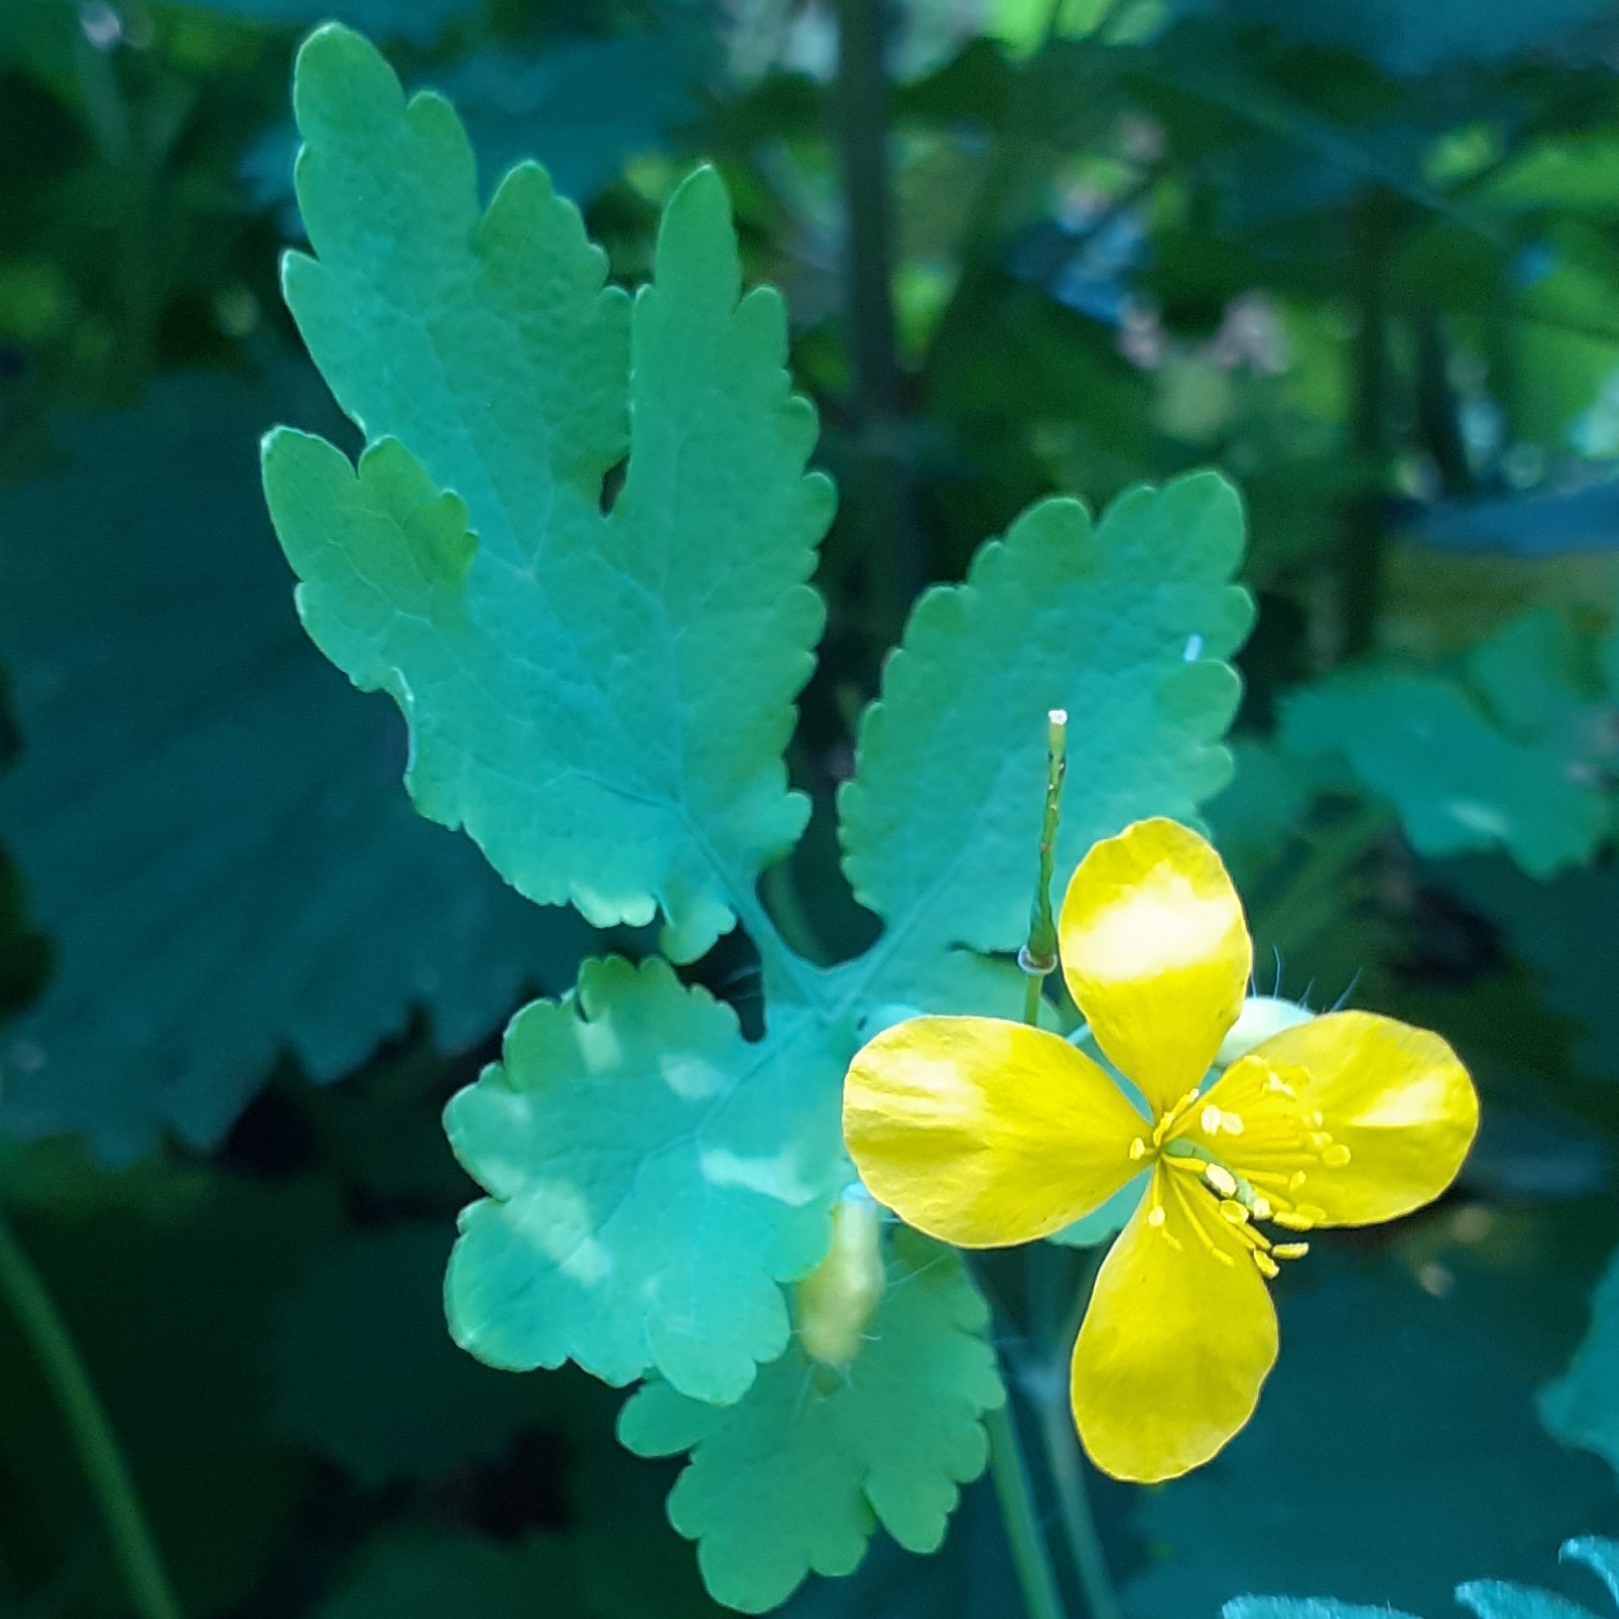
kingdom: Plantae
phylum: Tracheophyta
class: Magnoliopsida
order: Ranunculales
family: Papaveraceae
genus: Chelidonium
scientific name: Chelidonium majus
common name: Greater celandine
